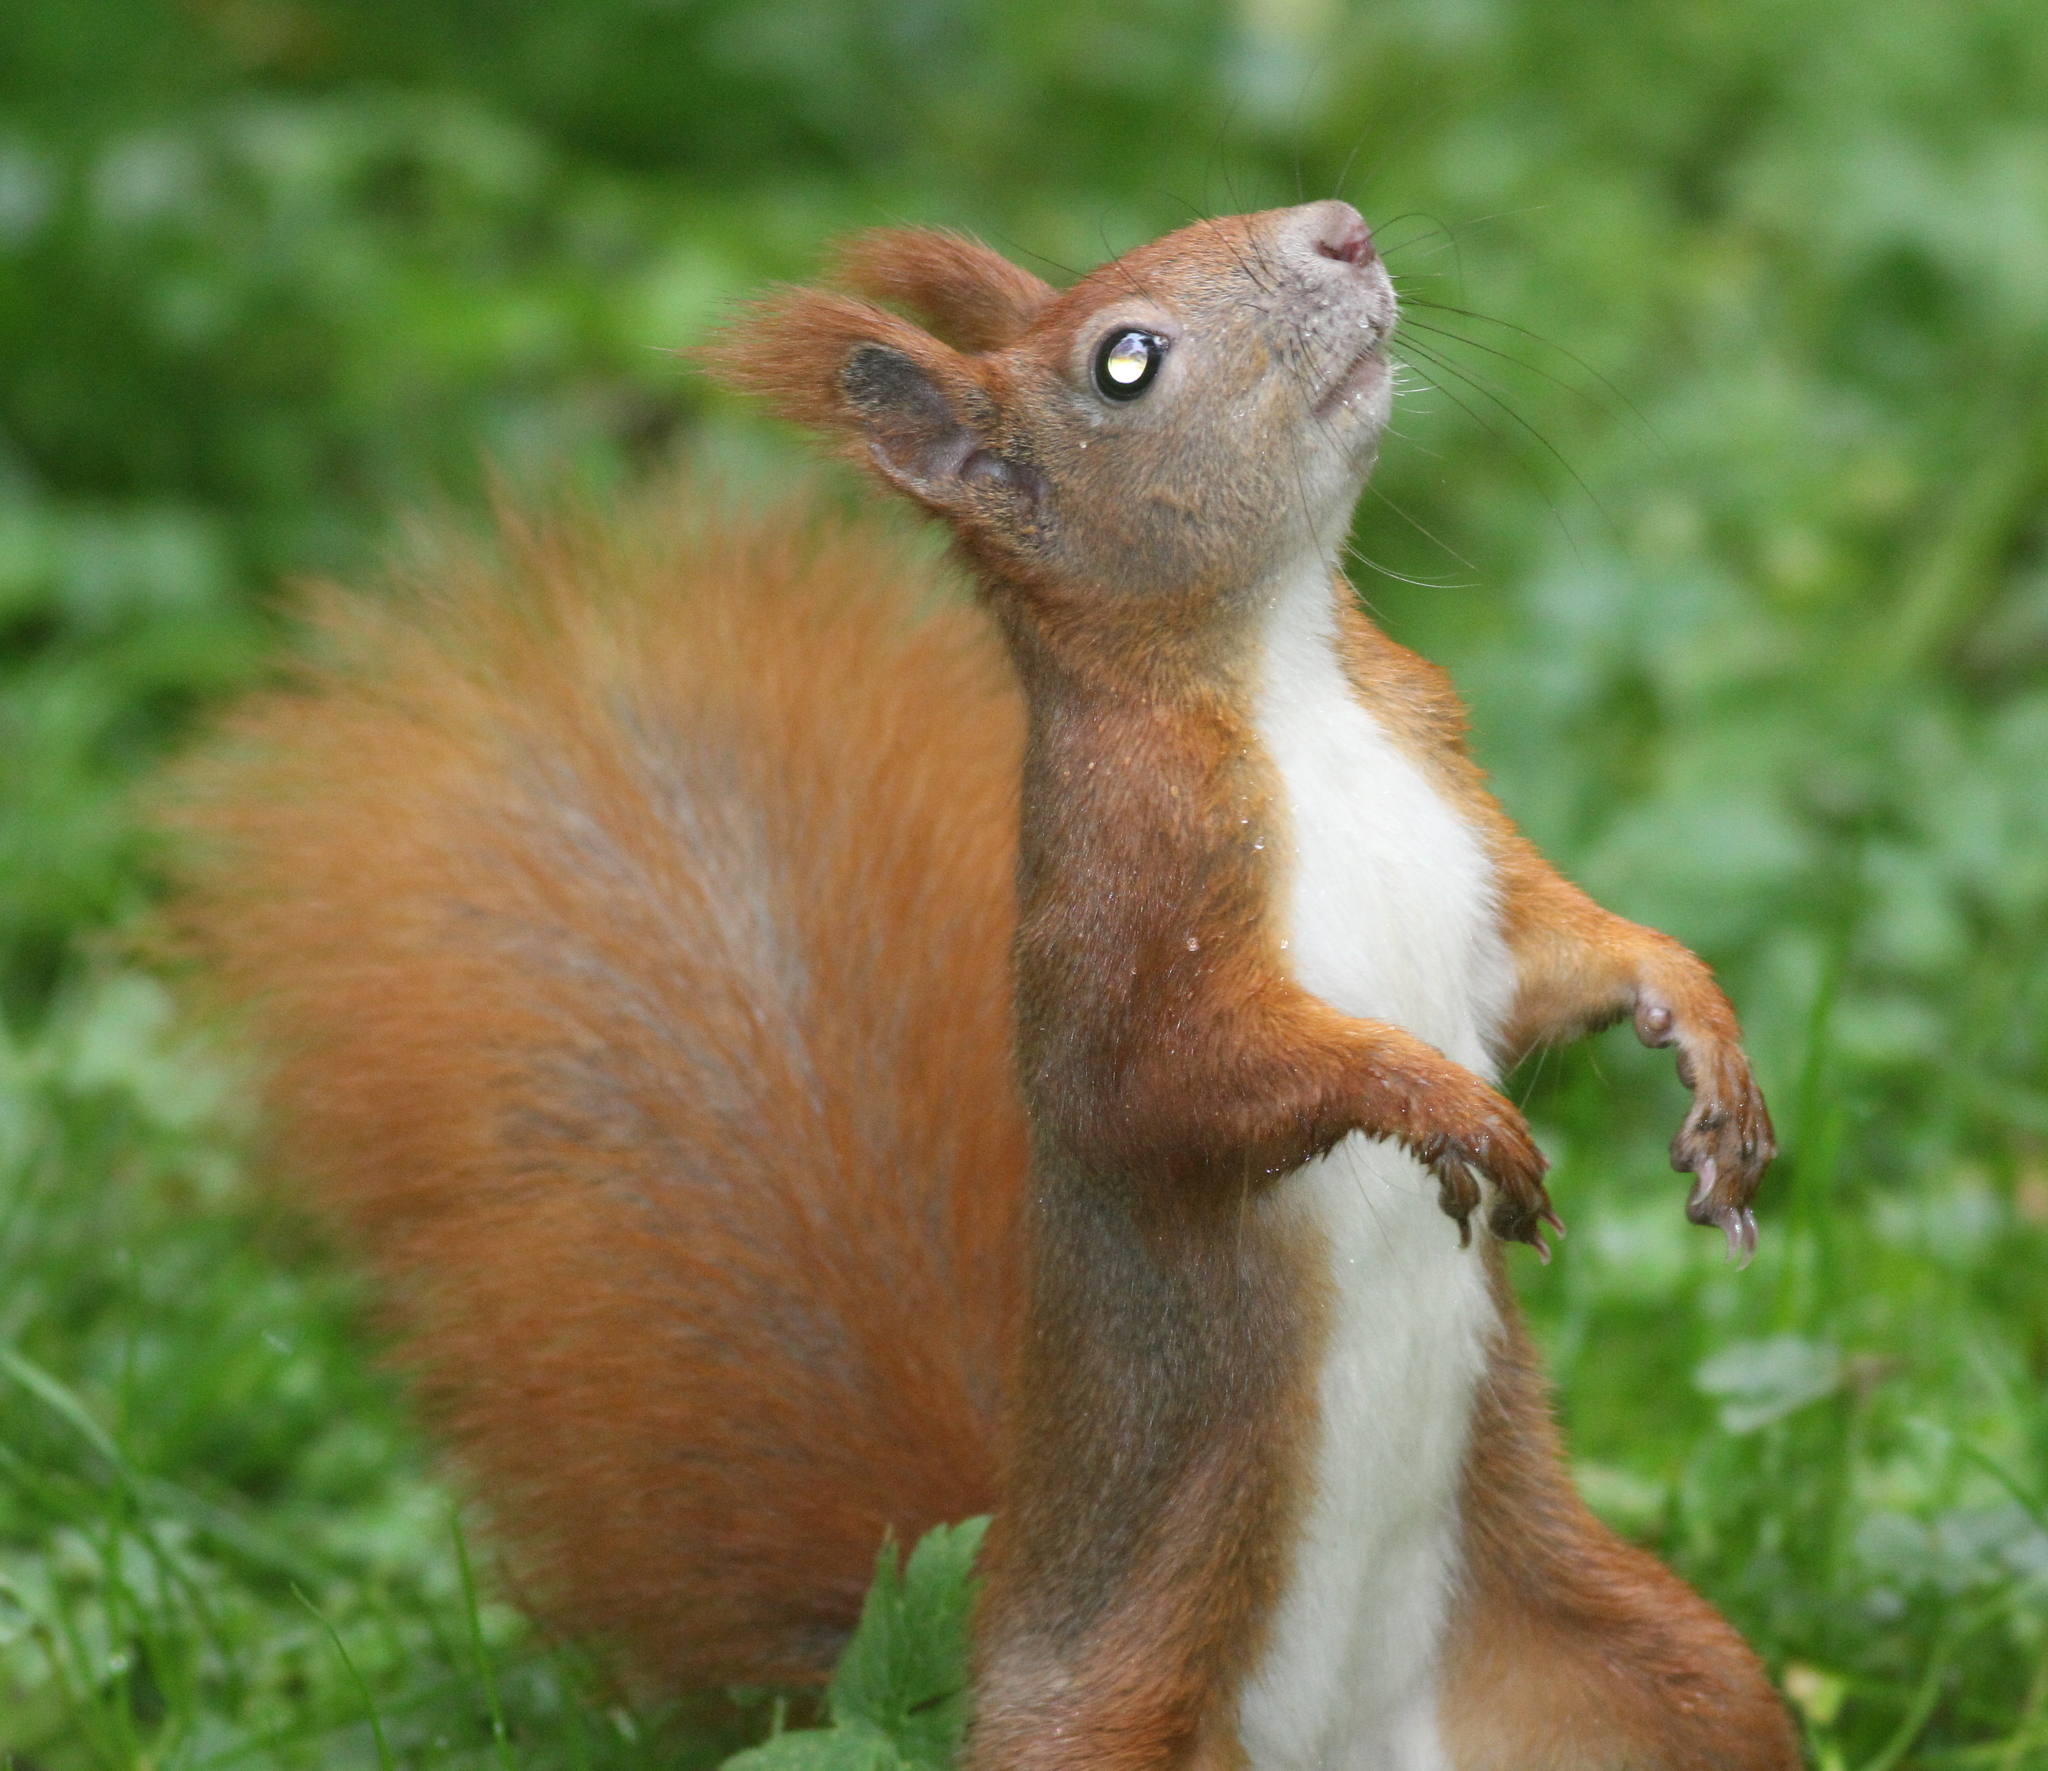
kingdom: Animalia
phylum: Chordata
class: Mammalia
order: Rodentia
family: Sciuridae
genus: Sciurus
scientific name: Sciurus vulgaris
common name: Eurasian red squirrel
